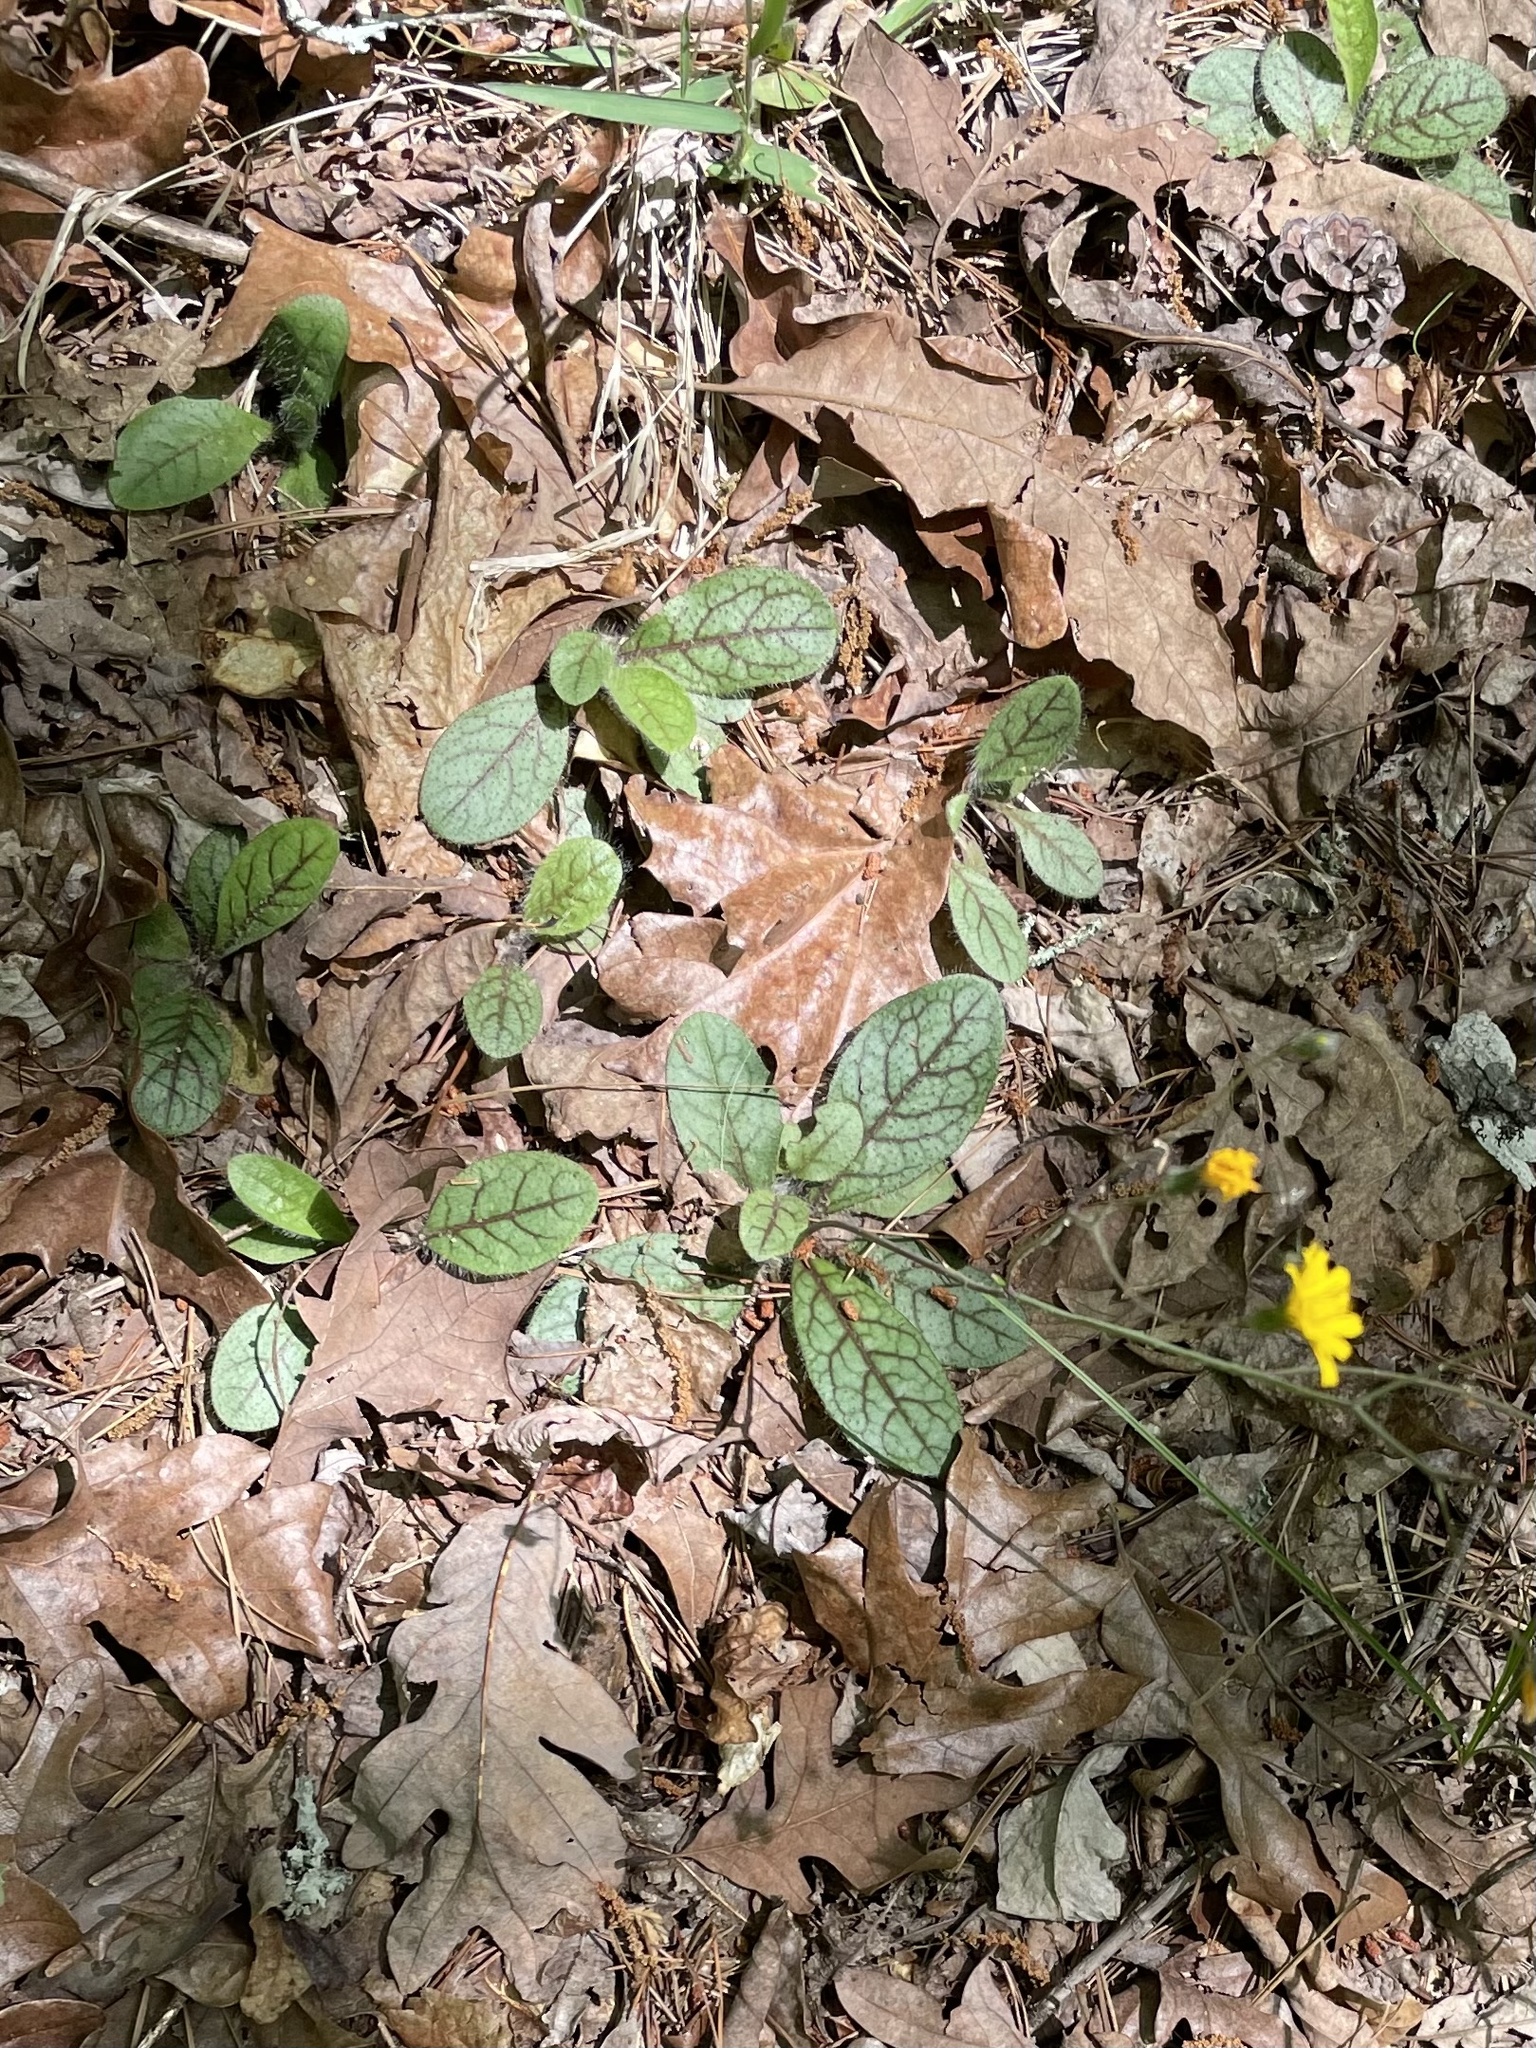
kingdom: Plantae
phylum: Tracheophyta
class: Magnoliopsida
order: Asterales
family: Asteraceae
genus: Hieracium
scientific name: Hieracium venosum
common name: Rattlesnake hawkweed
